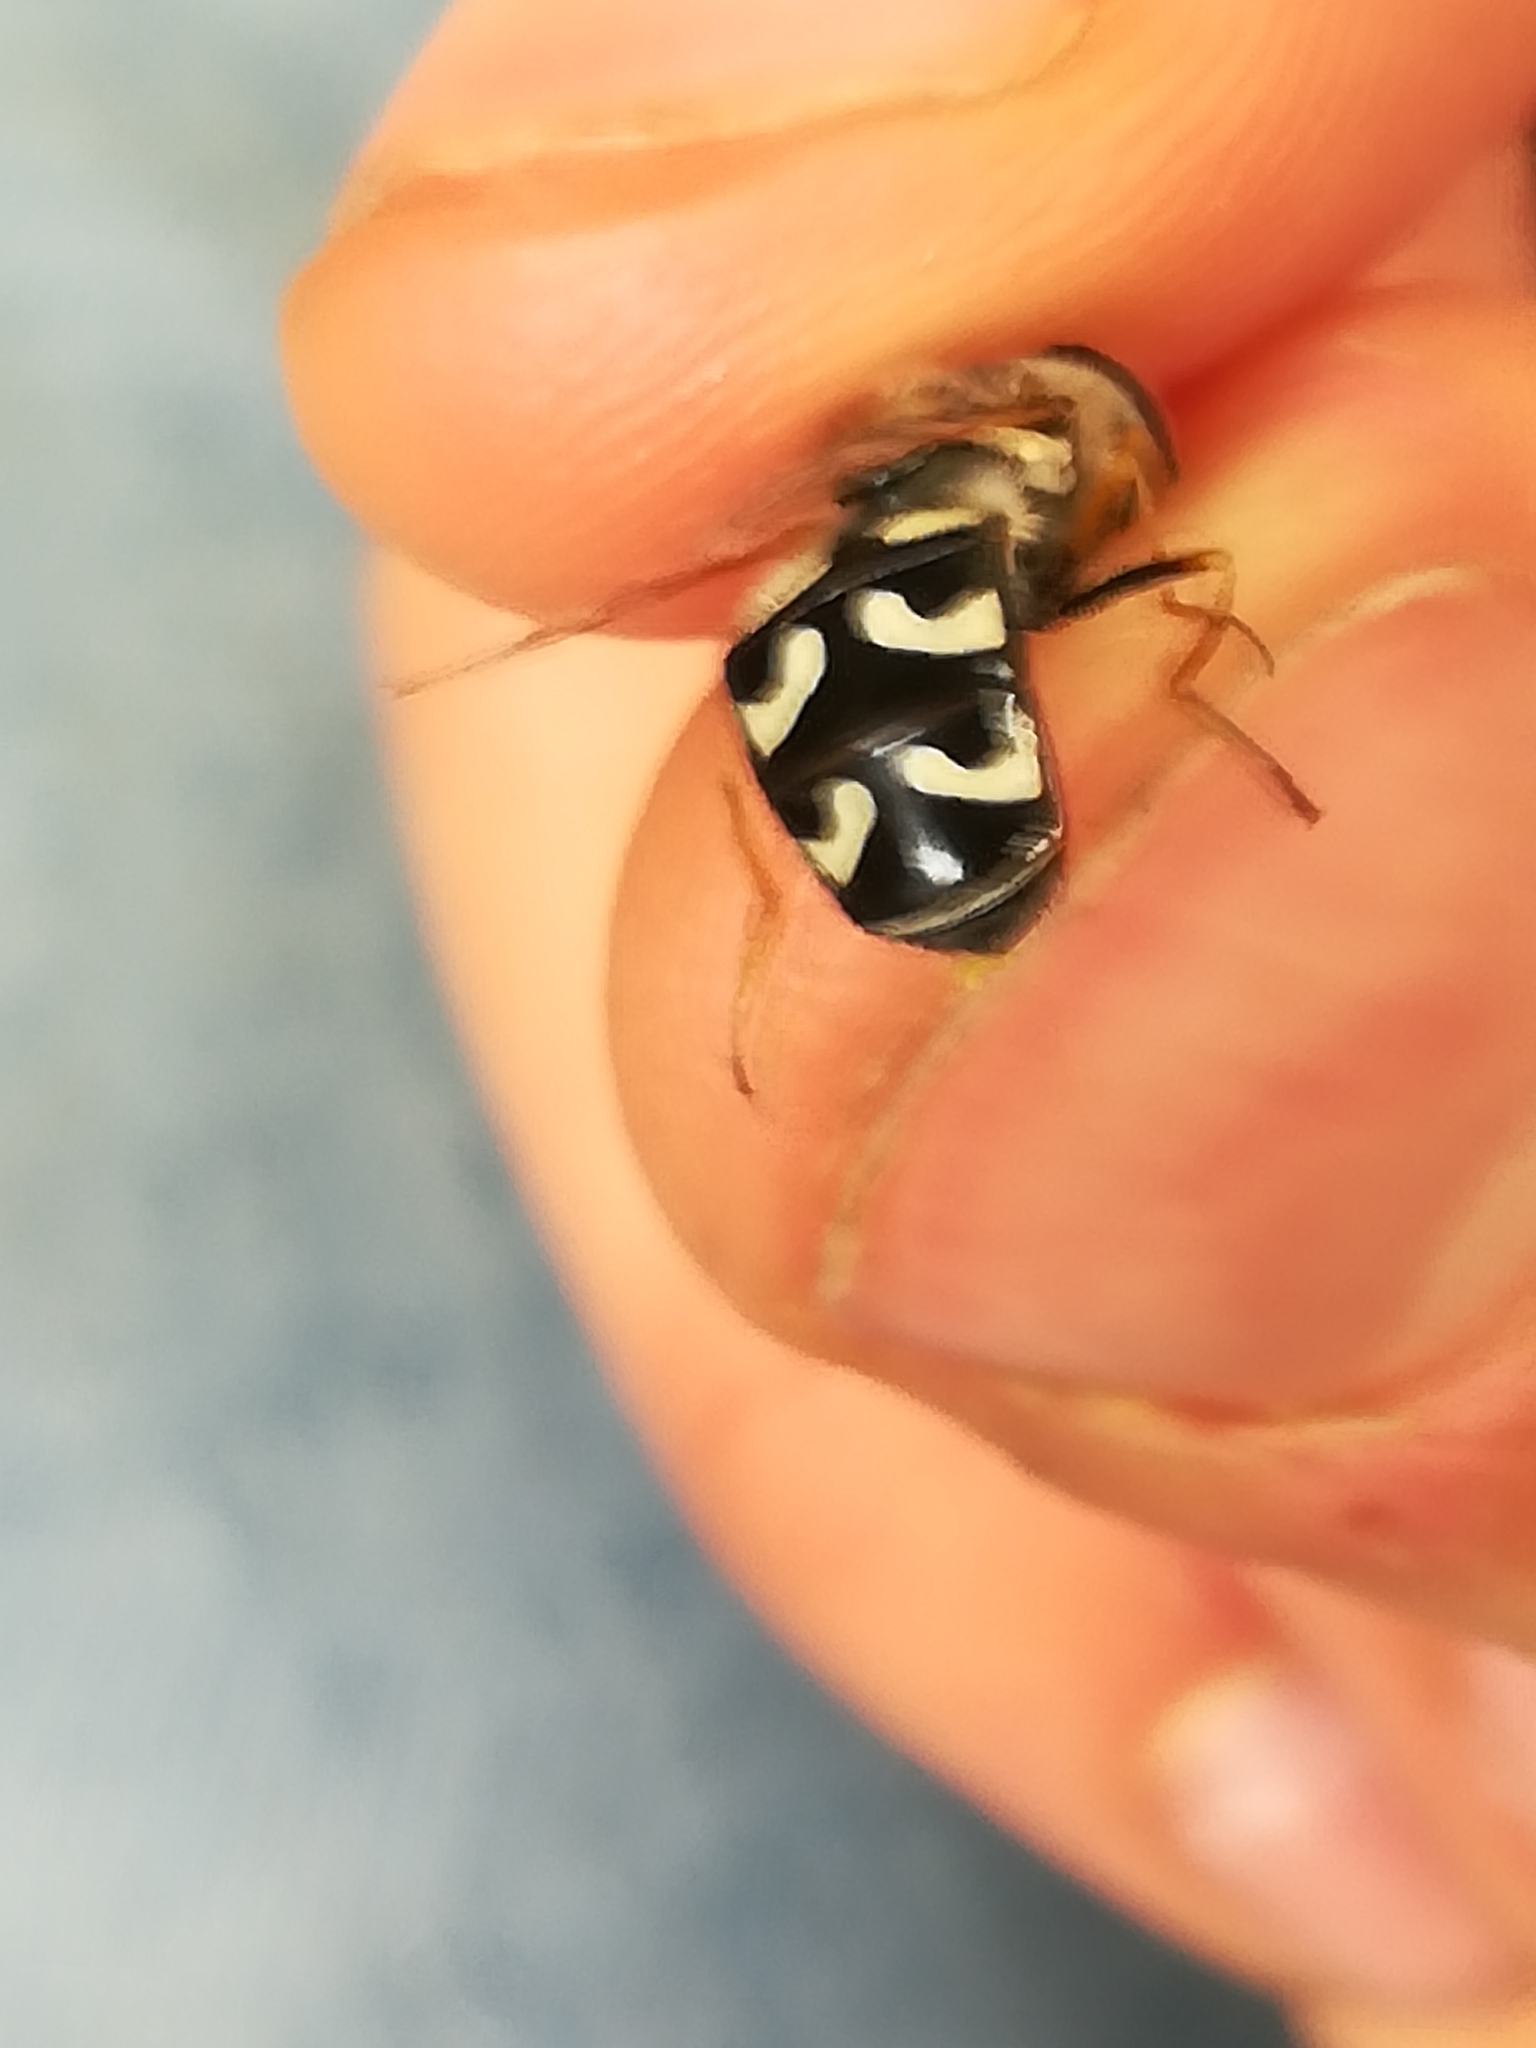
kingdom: Animalia
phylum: Arthropoda
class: Insecta
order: Diptera
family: Syrphidae
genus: Scaeva
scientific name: Scaeva pyrastri
